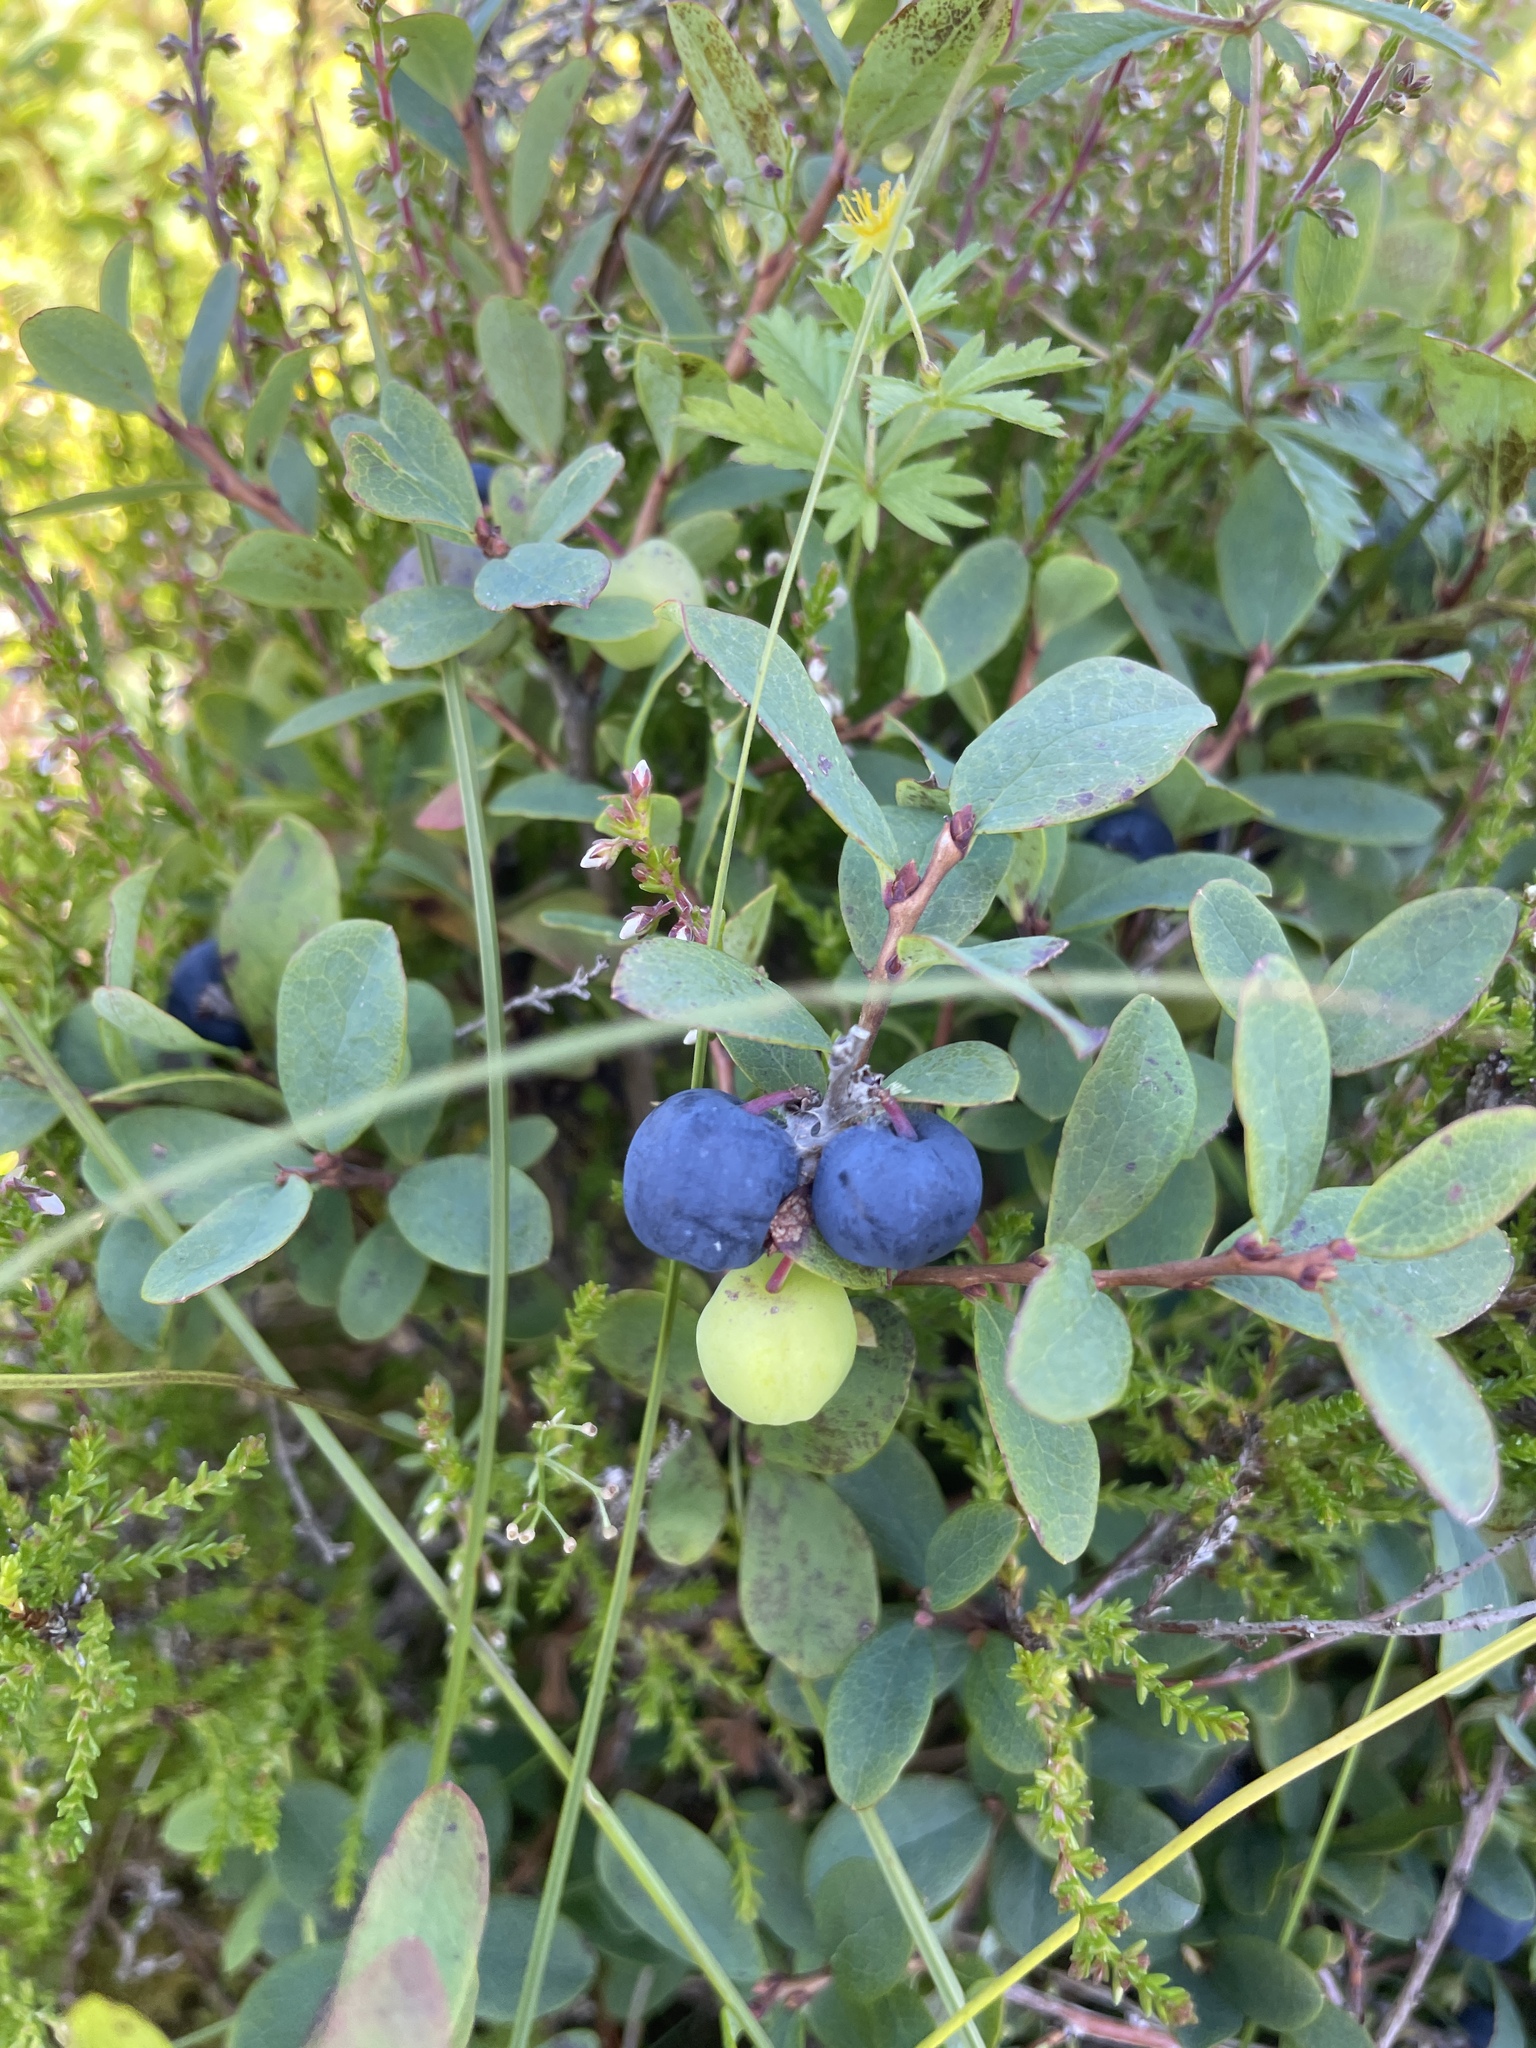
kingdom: Plantae
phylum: Tracheophyta
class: Magnoliopsida
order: Ericales
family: Ericaceae
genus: Vaccinium
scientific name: Vaccinium uliginosum
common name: Bog bilberry
